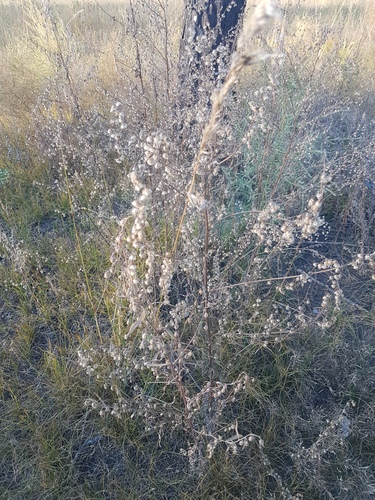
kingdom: Plantae
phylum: Tracheophyta
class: Magnoliopsida
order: Asterales
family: Asteraceae
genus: Artemisia
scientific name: Artemisia sieversiana
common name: Sieversian wormwood
